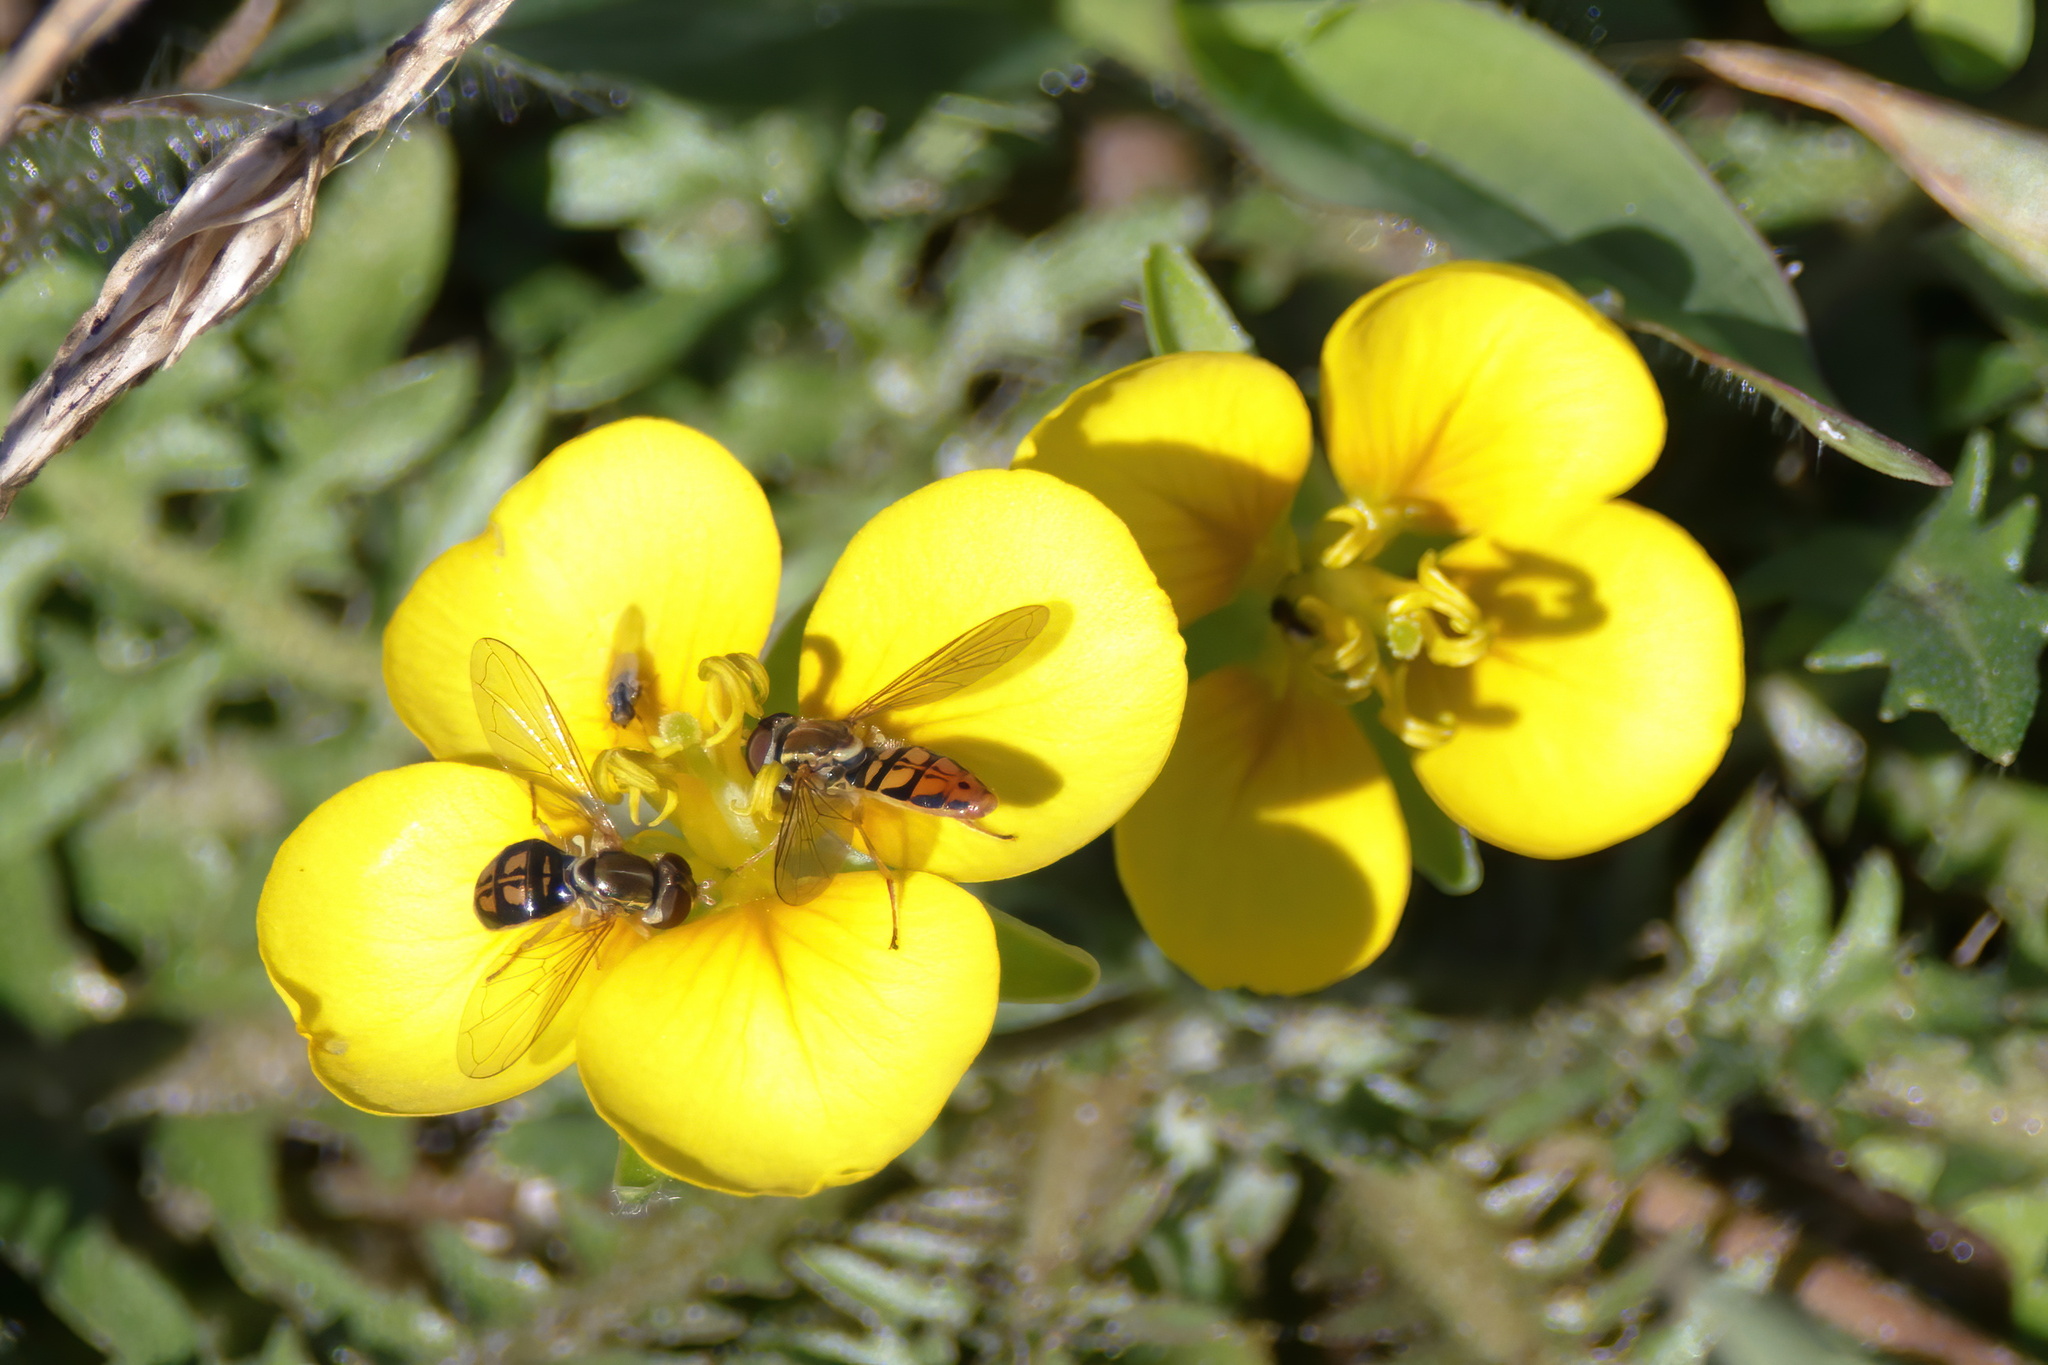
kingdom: Animalia
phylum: Arthropoda
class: Insecta
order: Diptera
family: Syrphidae
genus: Toxomerus
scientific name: Toxomerus marginatus
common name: Syrphid fly
